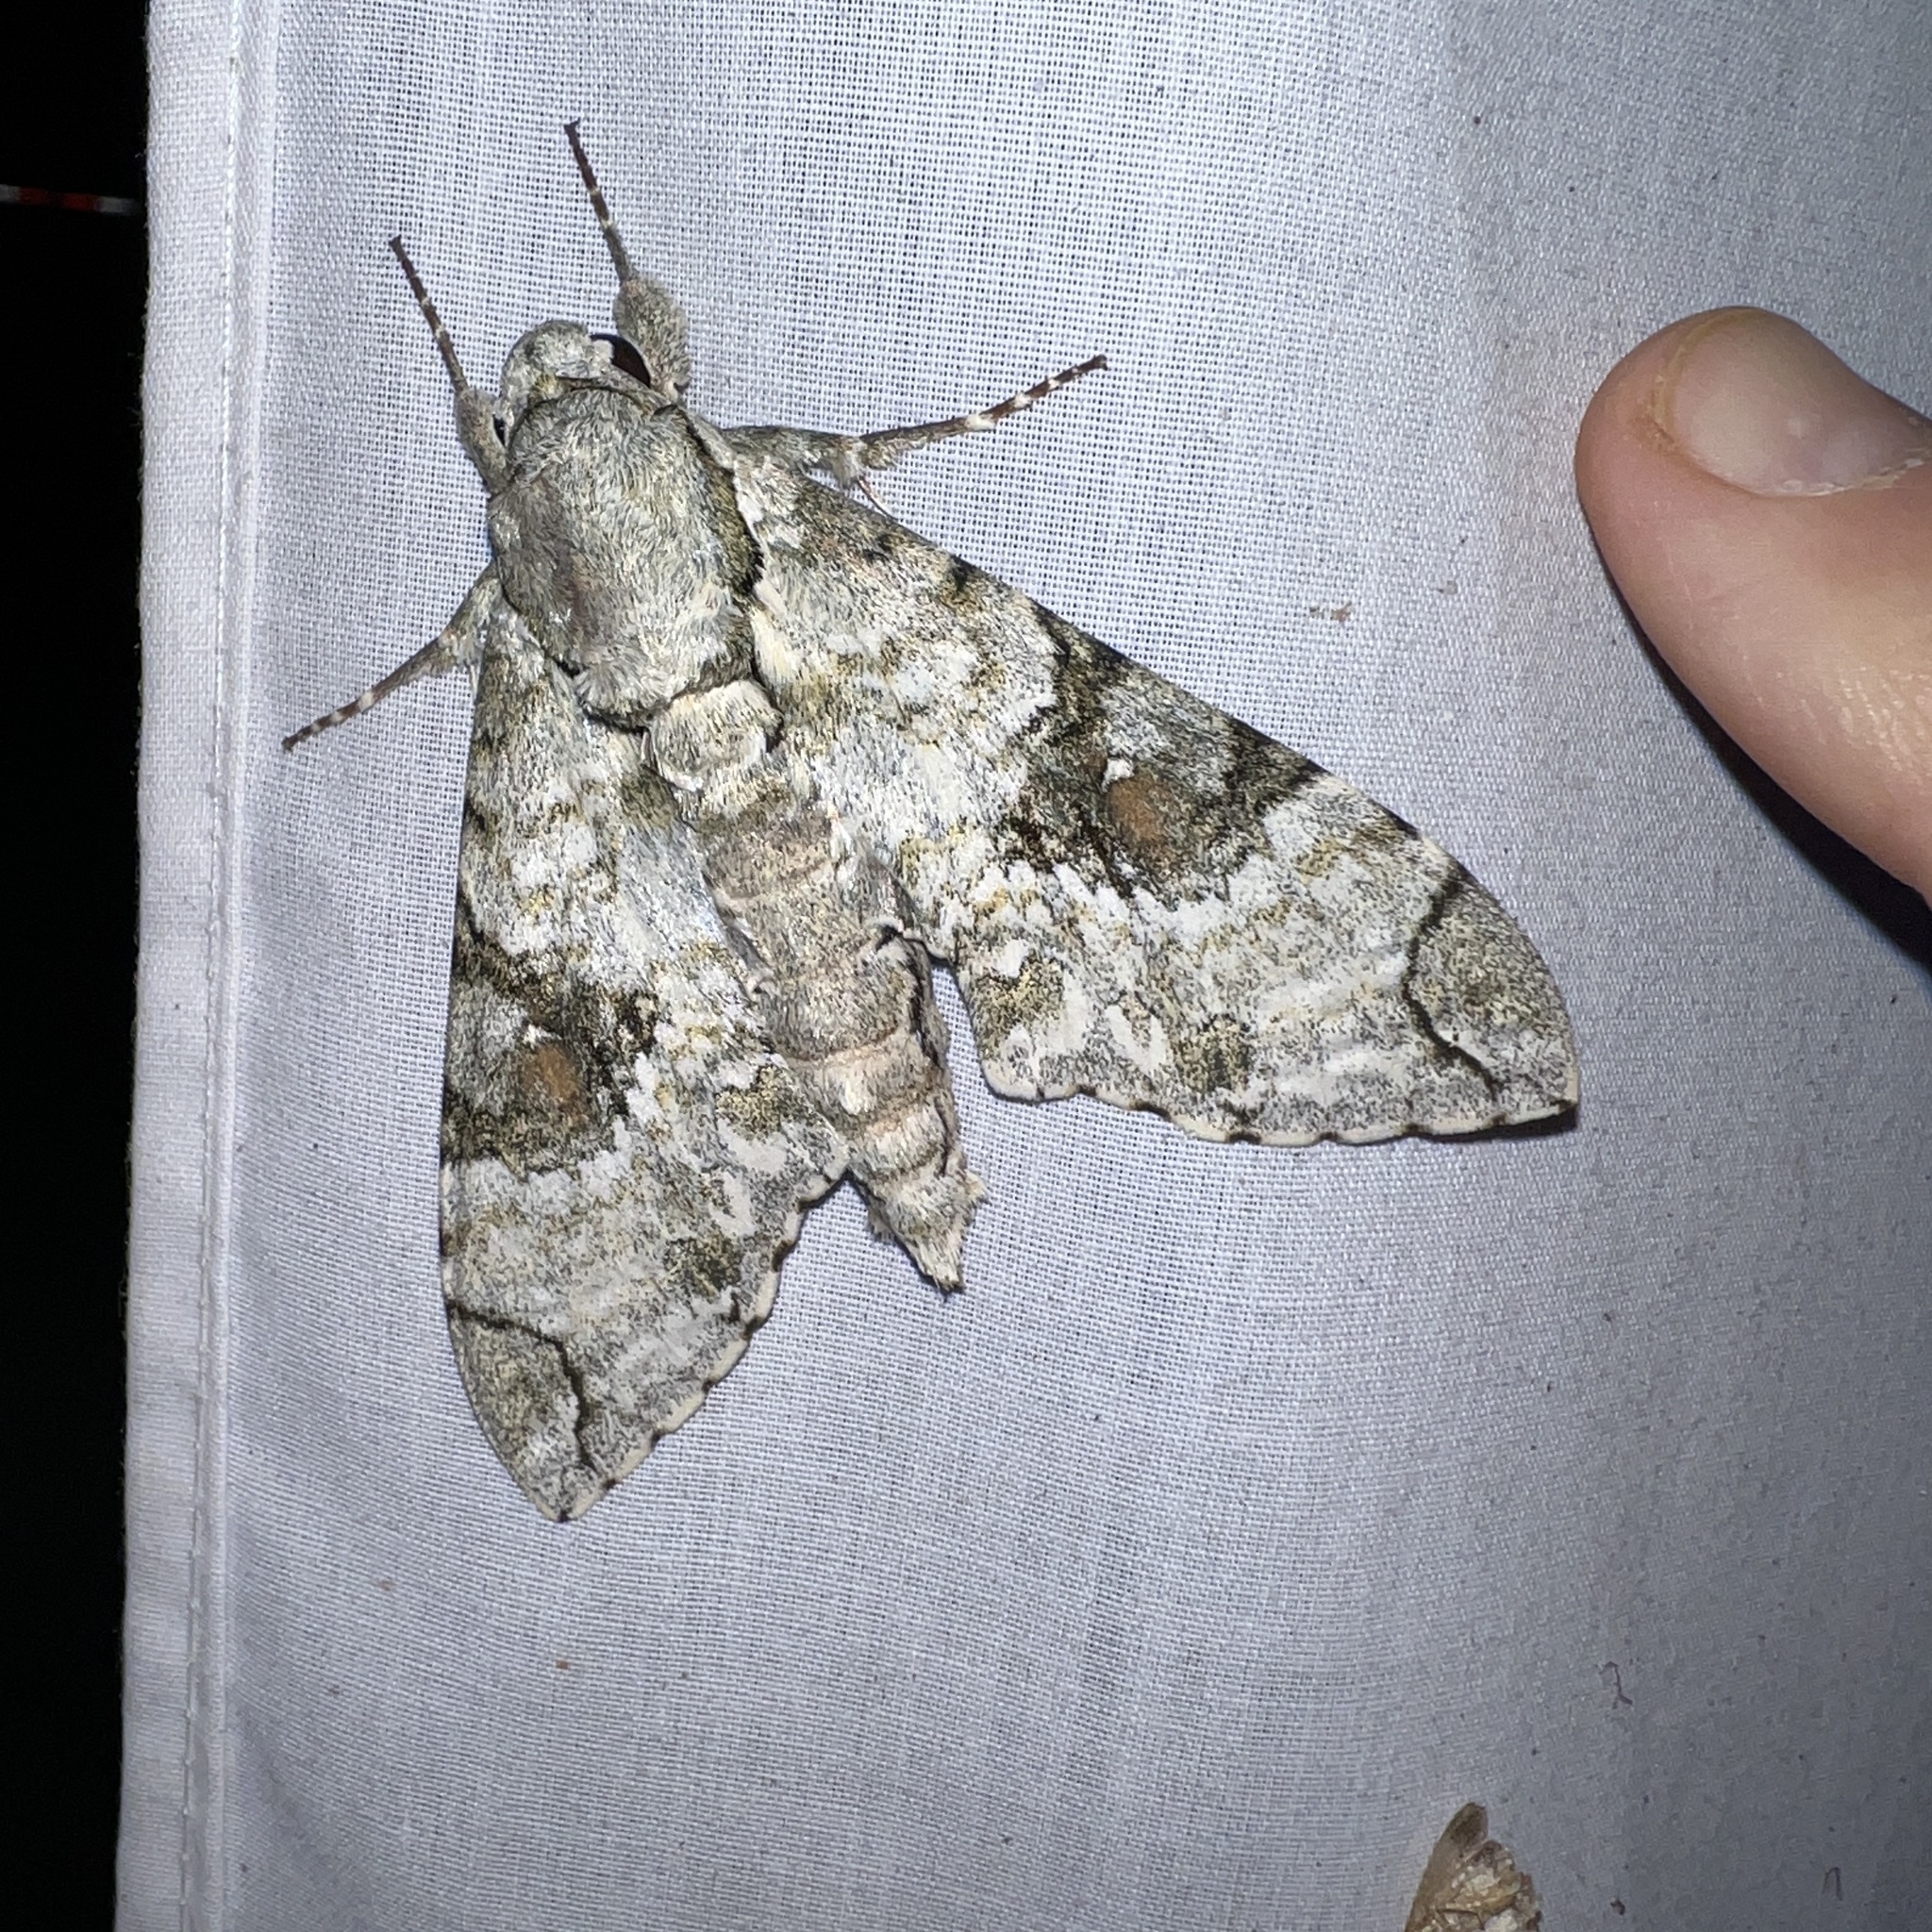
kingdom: Animalia
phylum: Arthropoda
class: Insecta
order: Lepidoptera
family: Sphingidae
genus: Manduca
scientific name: Manduca florestan
